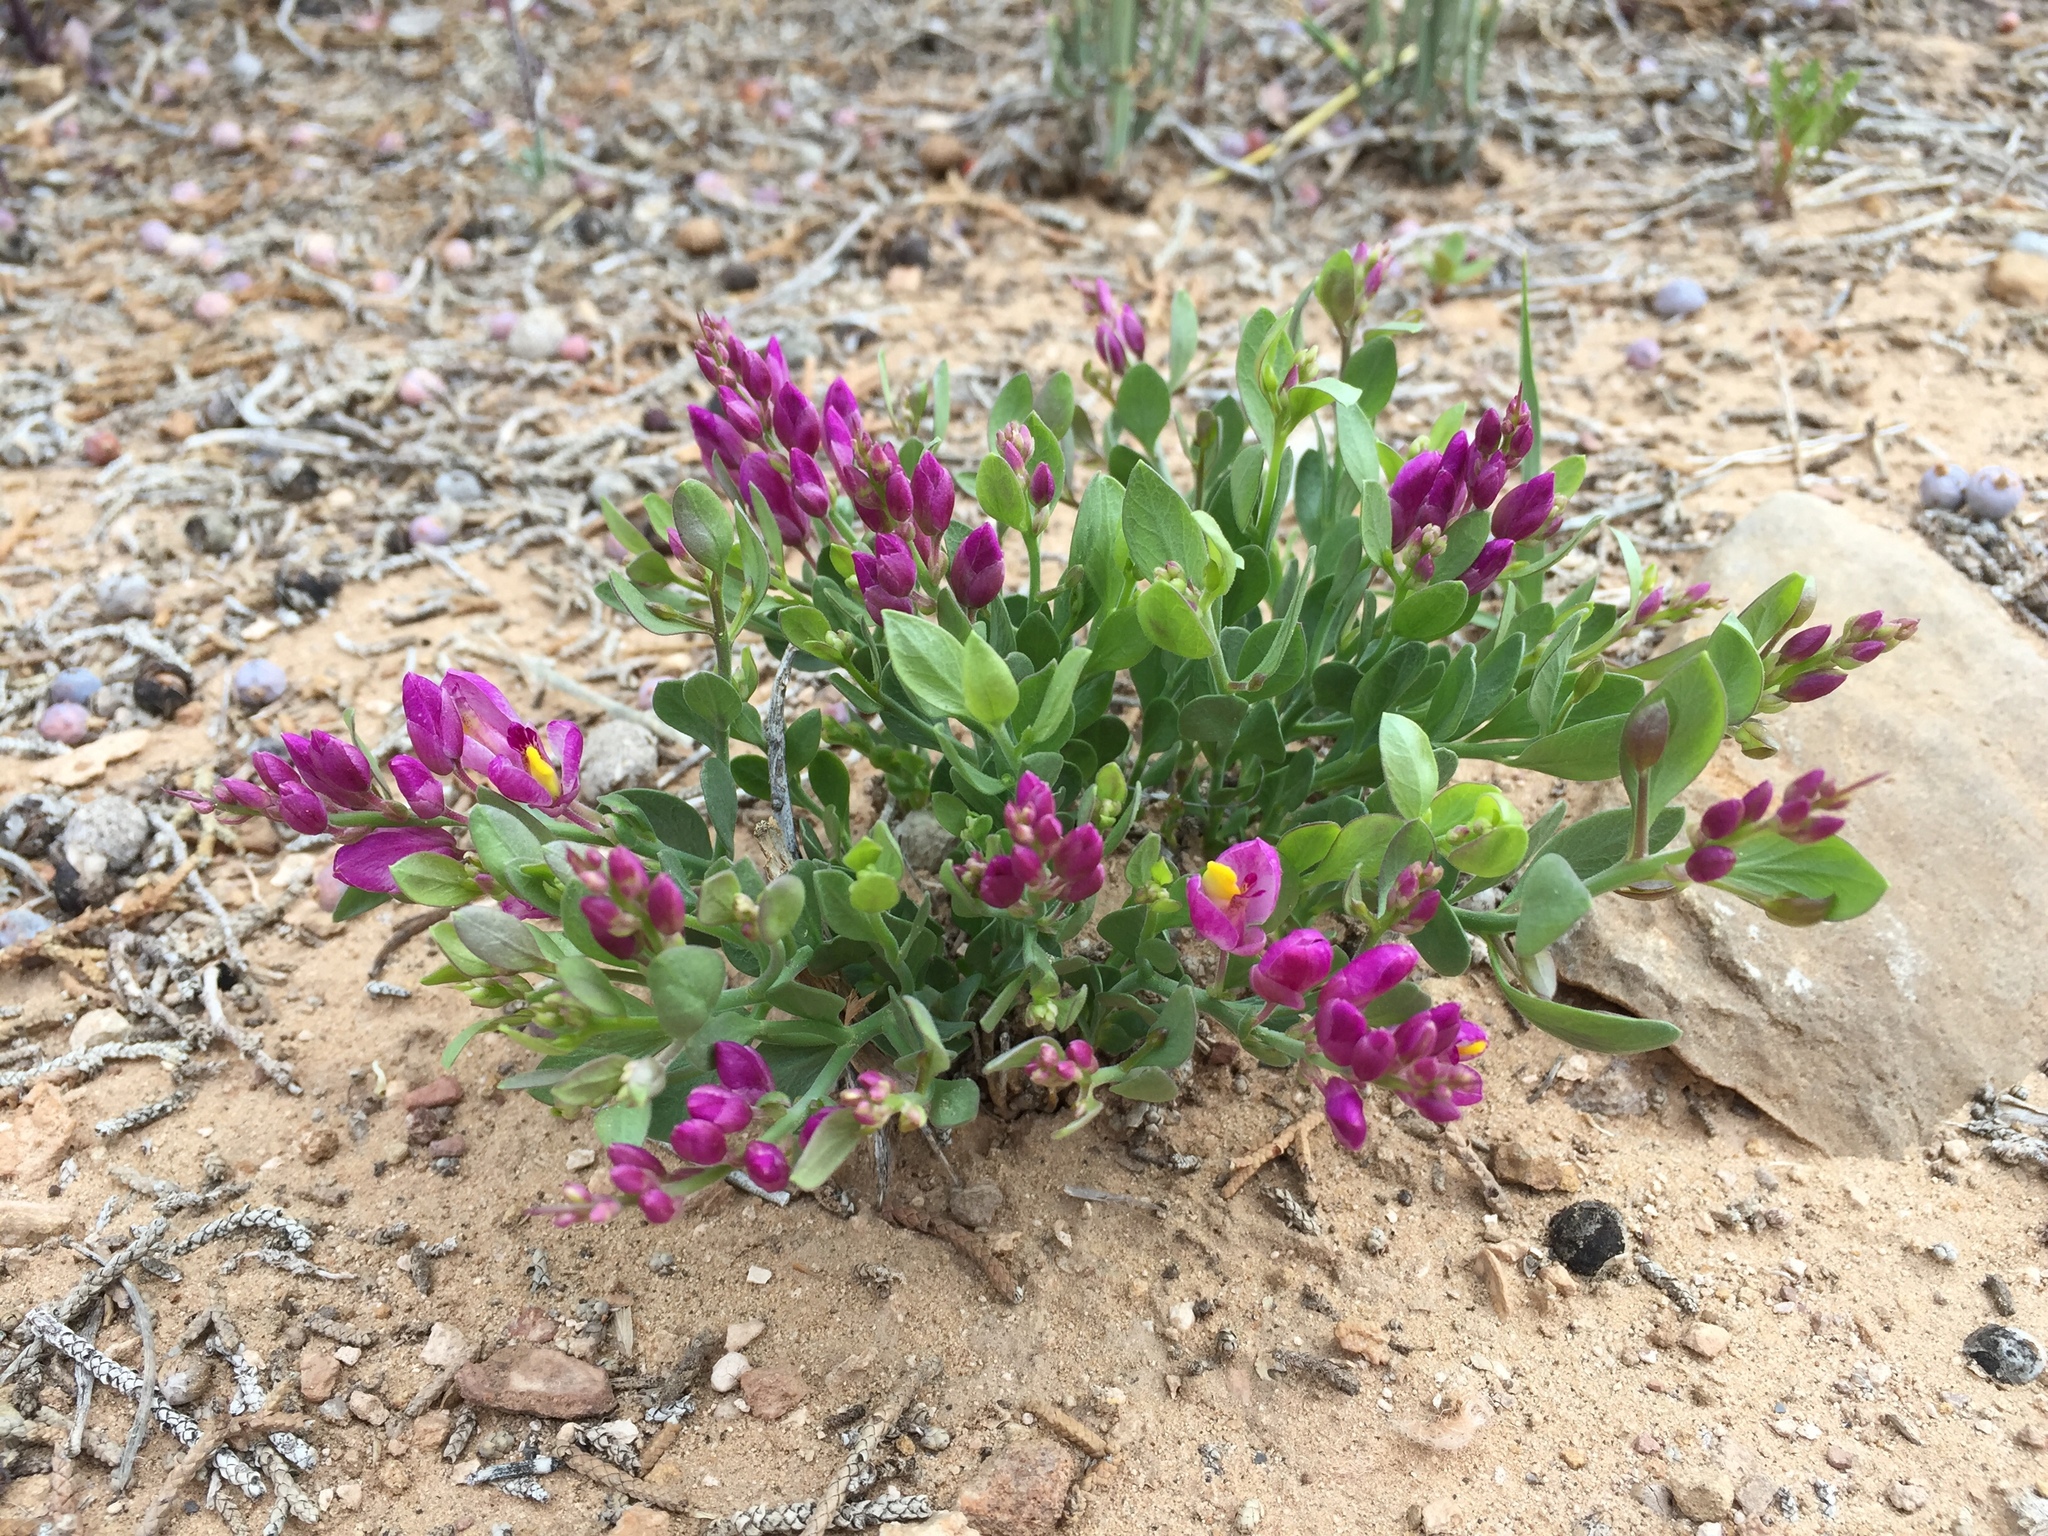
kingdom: Plantae
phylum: Tracheophyta
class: Magnoliopsida
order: Fabales
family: Polygalaceae
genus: Rhinotropis
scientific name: Rhinotropis subspinosa
